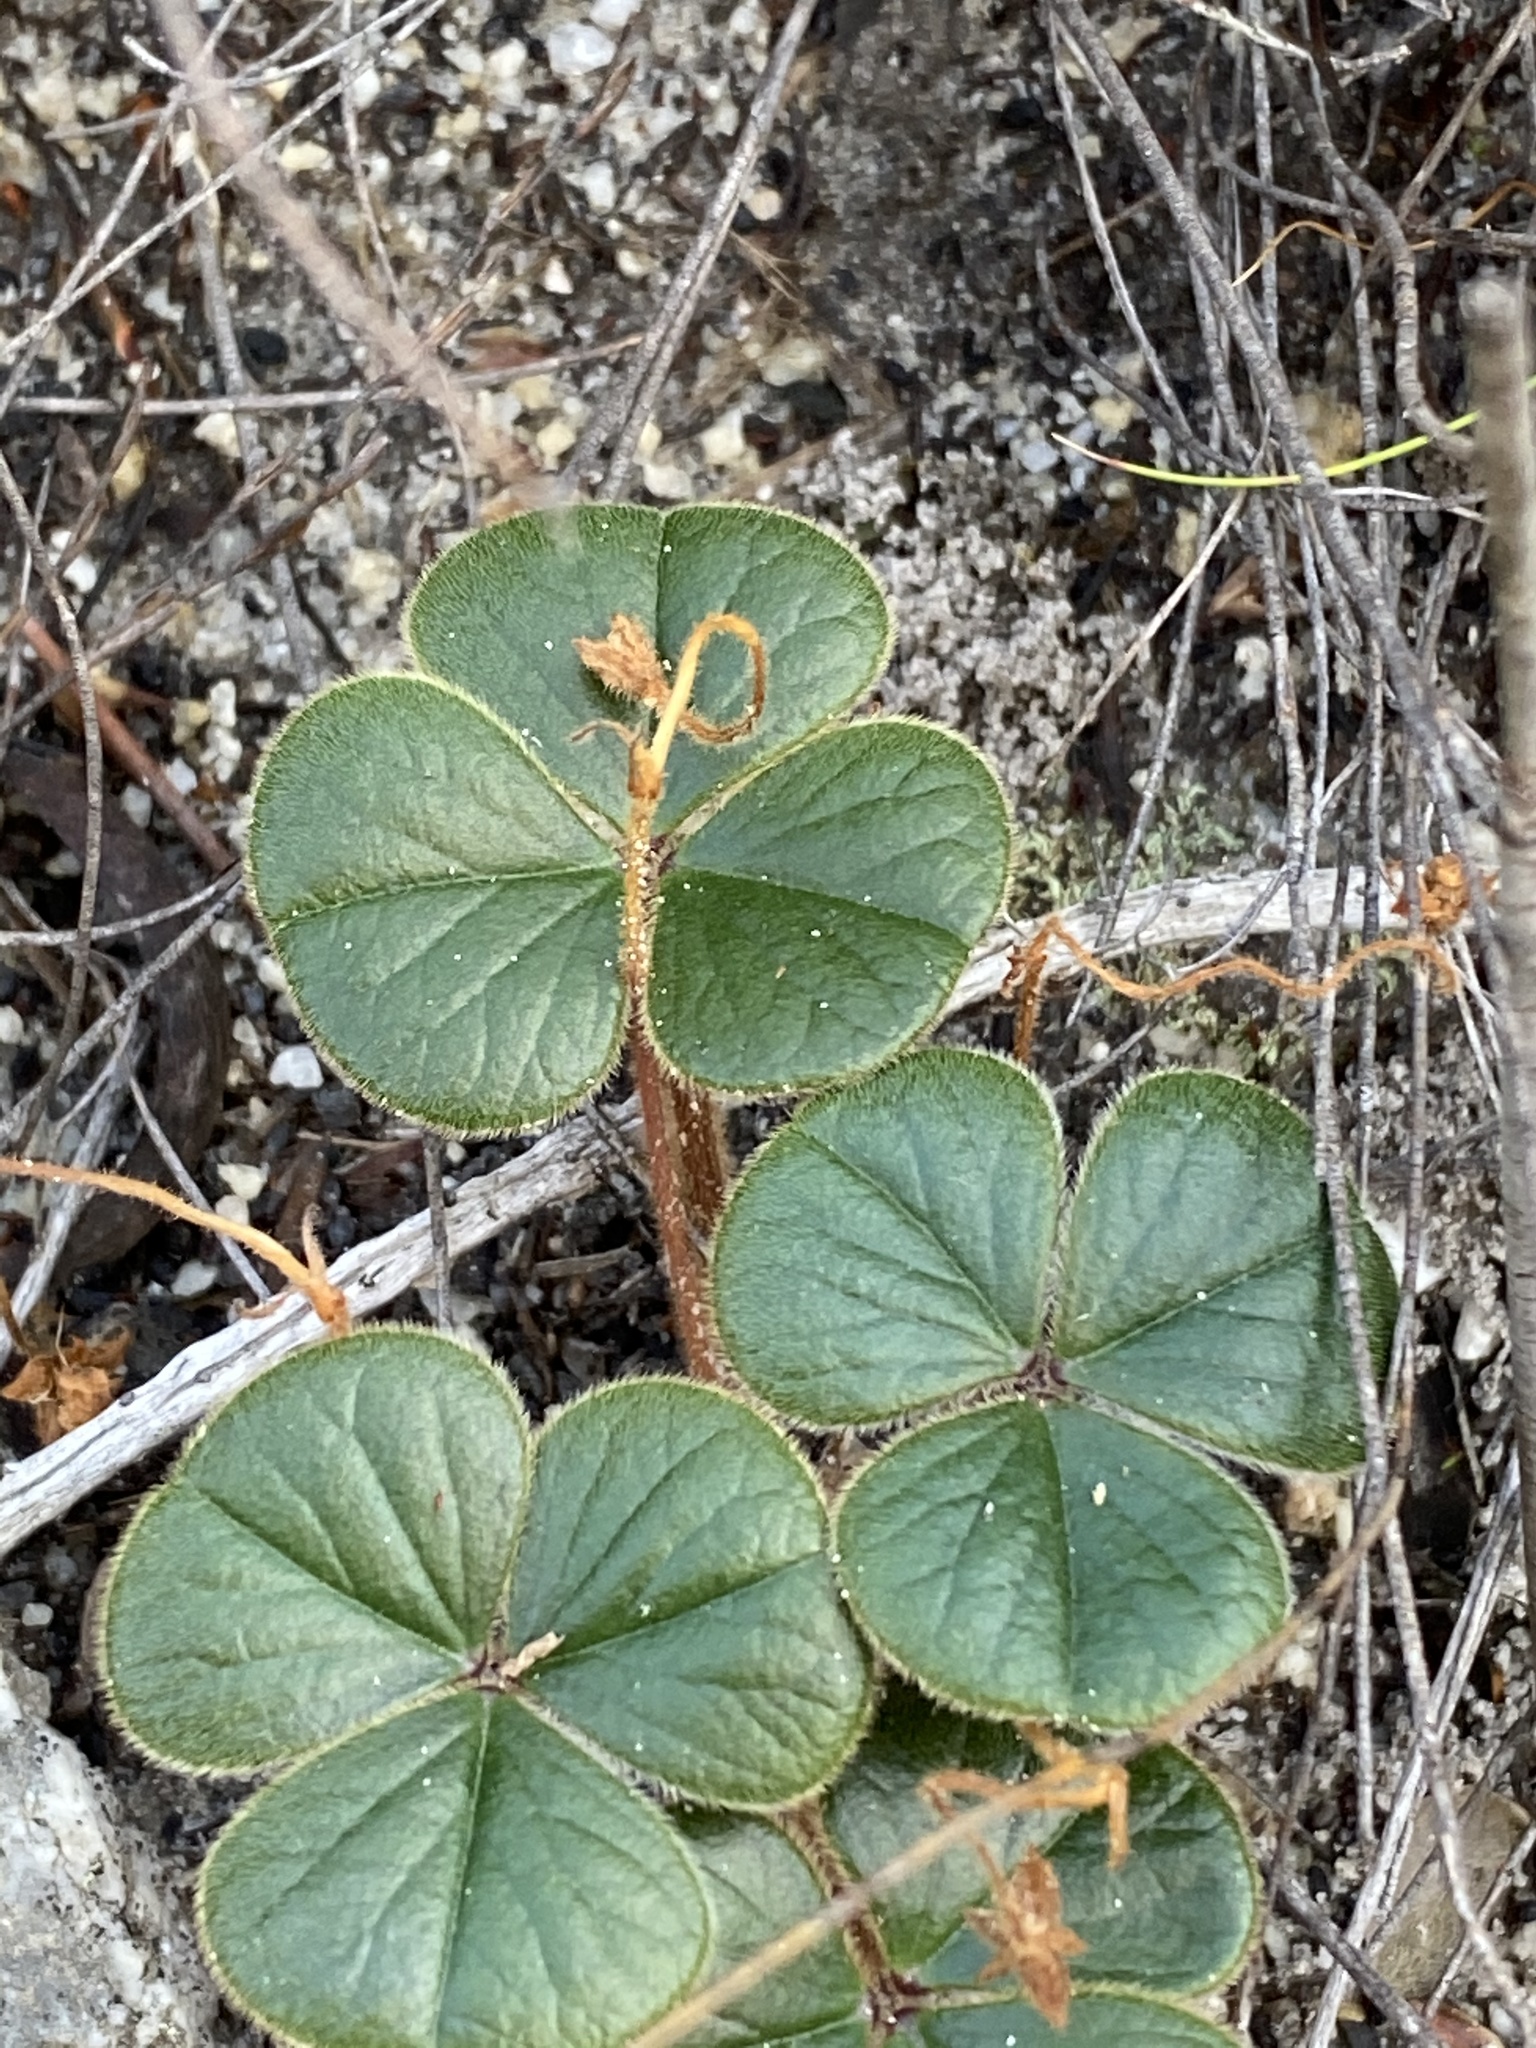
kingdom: Plantae
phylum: Tracheophyta
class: Magnoliopsida
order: Oxalidales
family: Oxalidaceae
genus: Oxalis
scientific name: Oxalis truncatula
